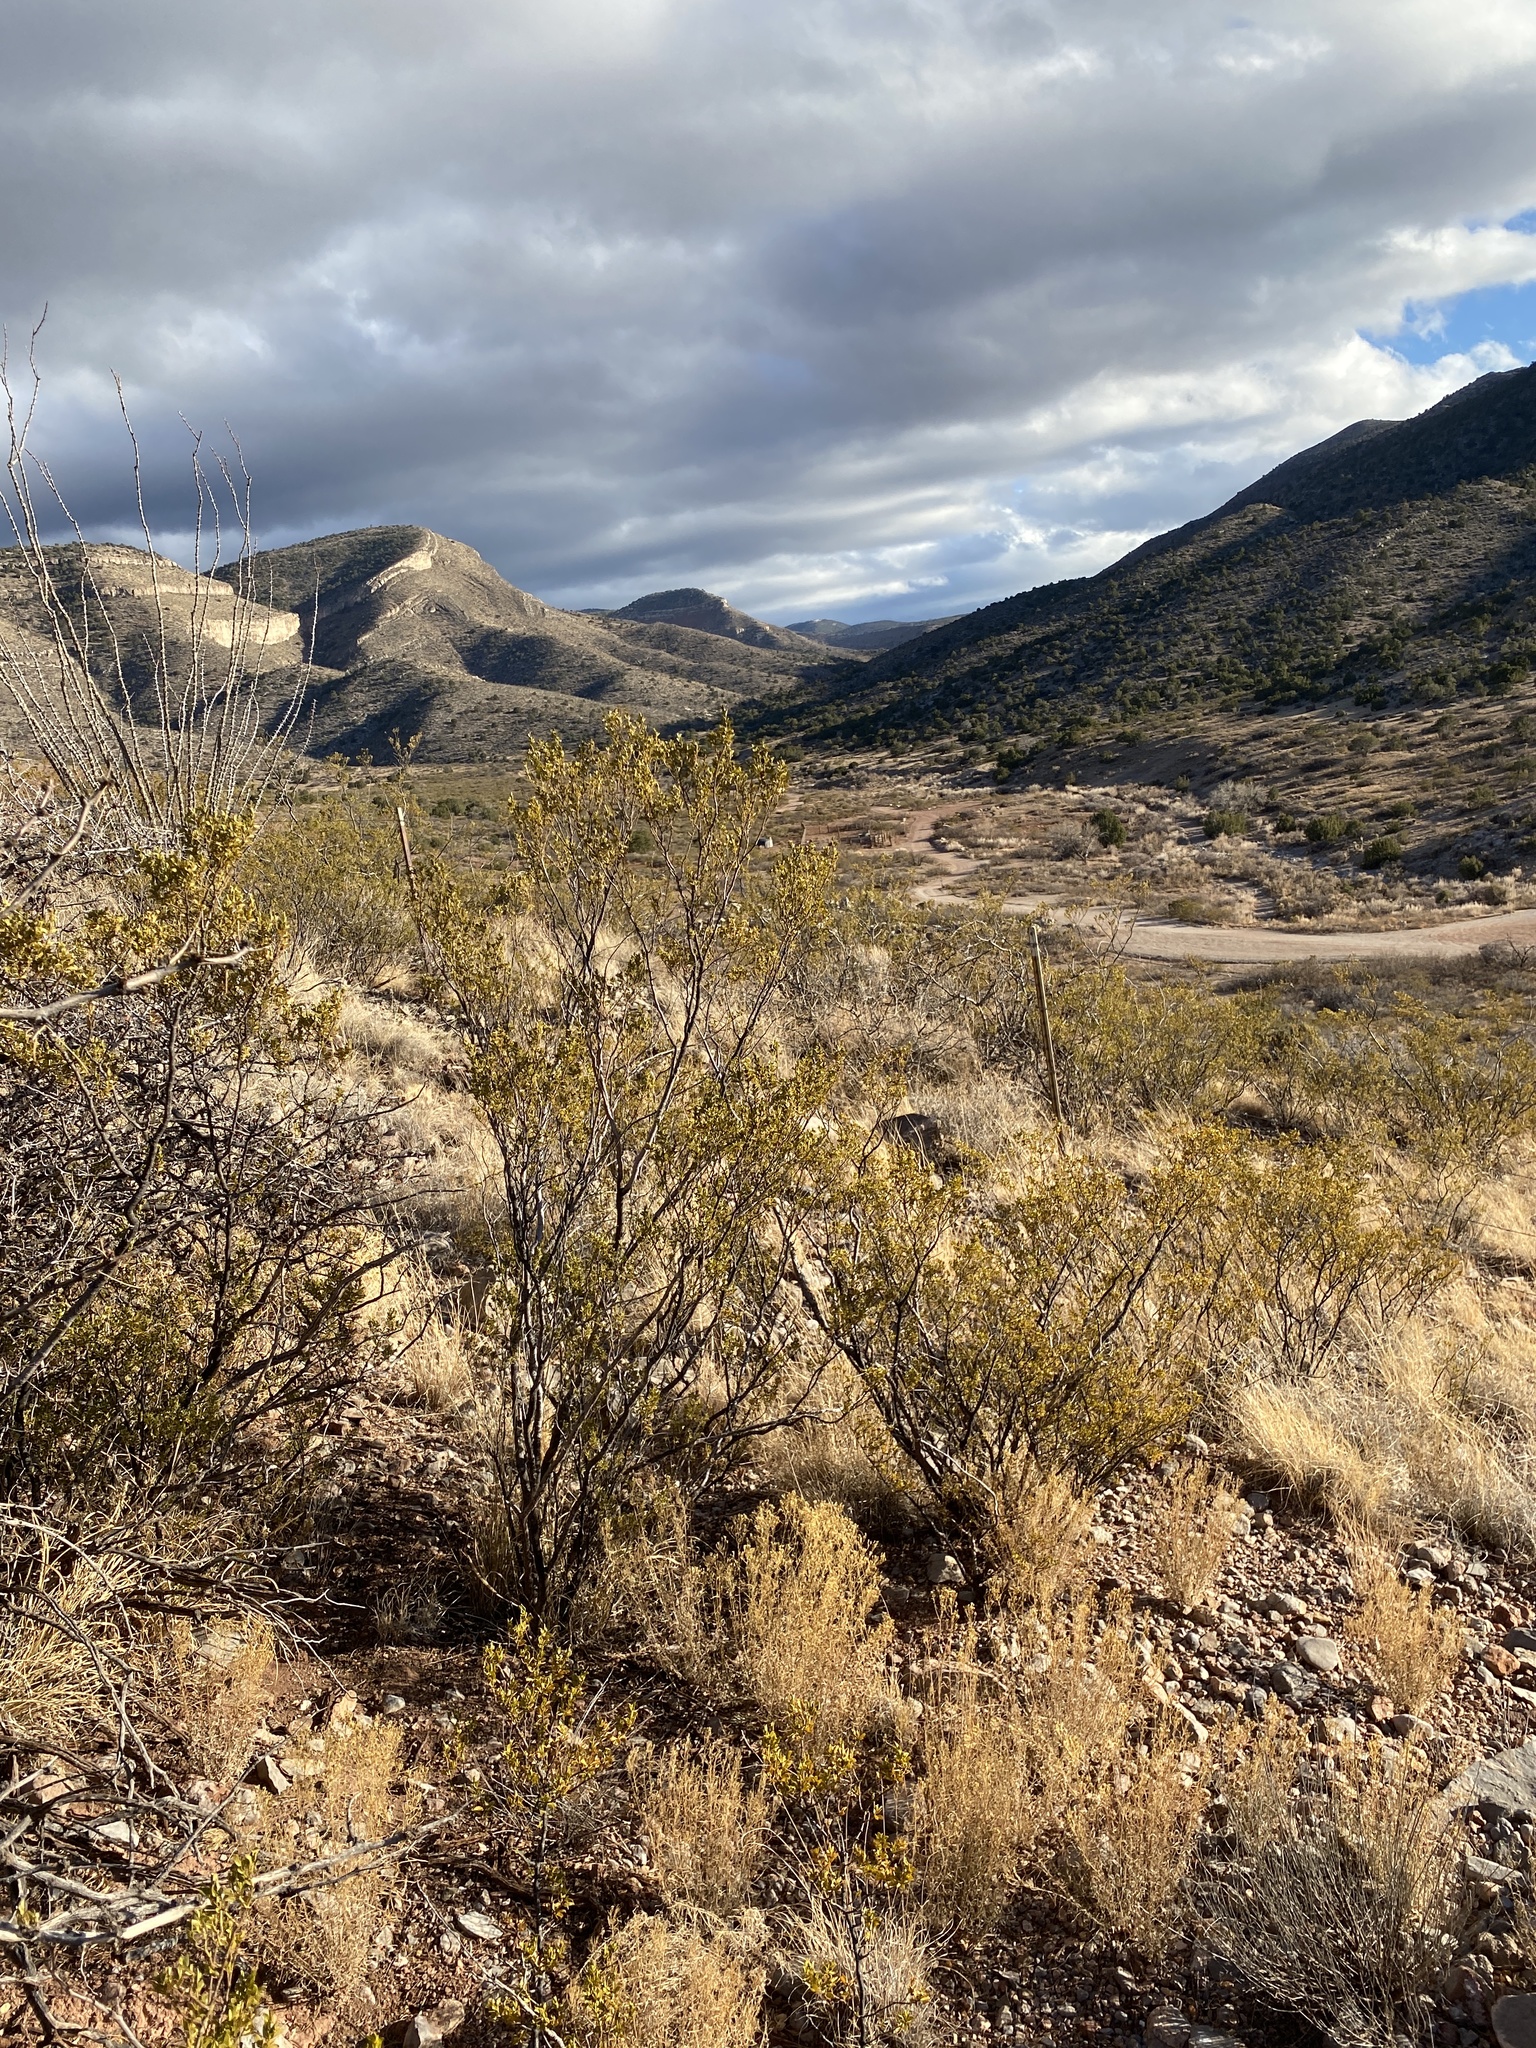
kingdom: Plantae
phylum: Tracheophyta
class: Magnoliopsida
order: Zygophyllales
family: Zygophyllaceae
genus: Larrea
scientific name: Larrea tridentata
